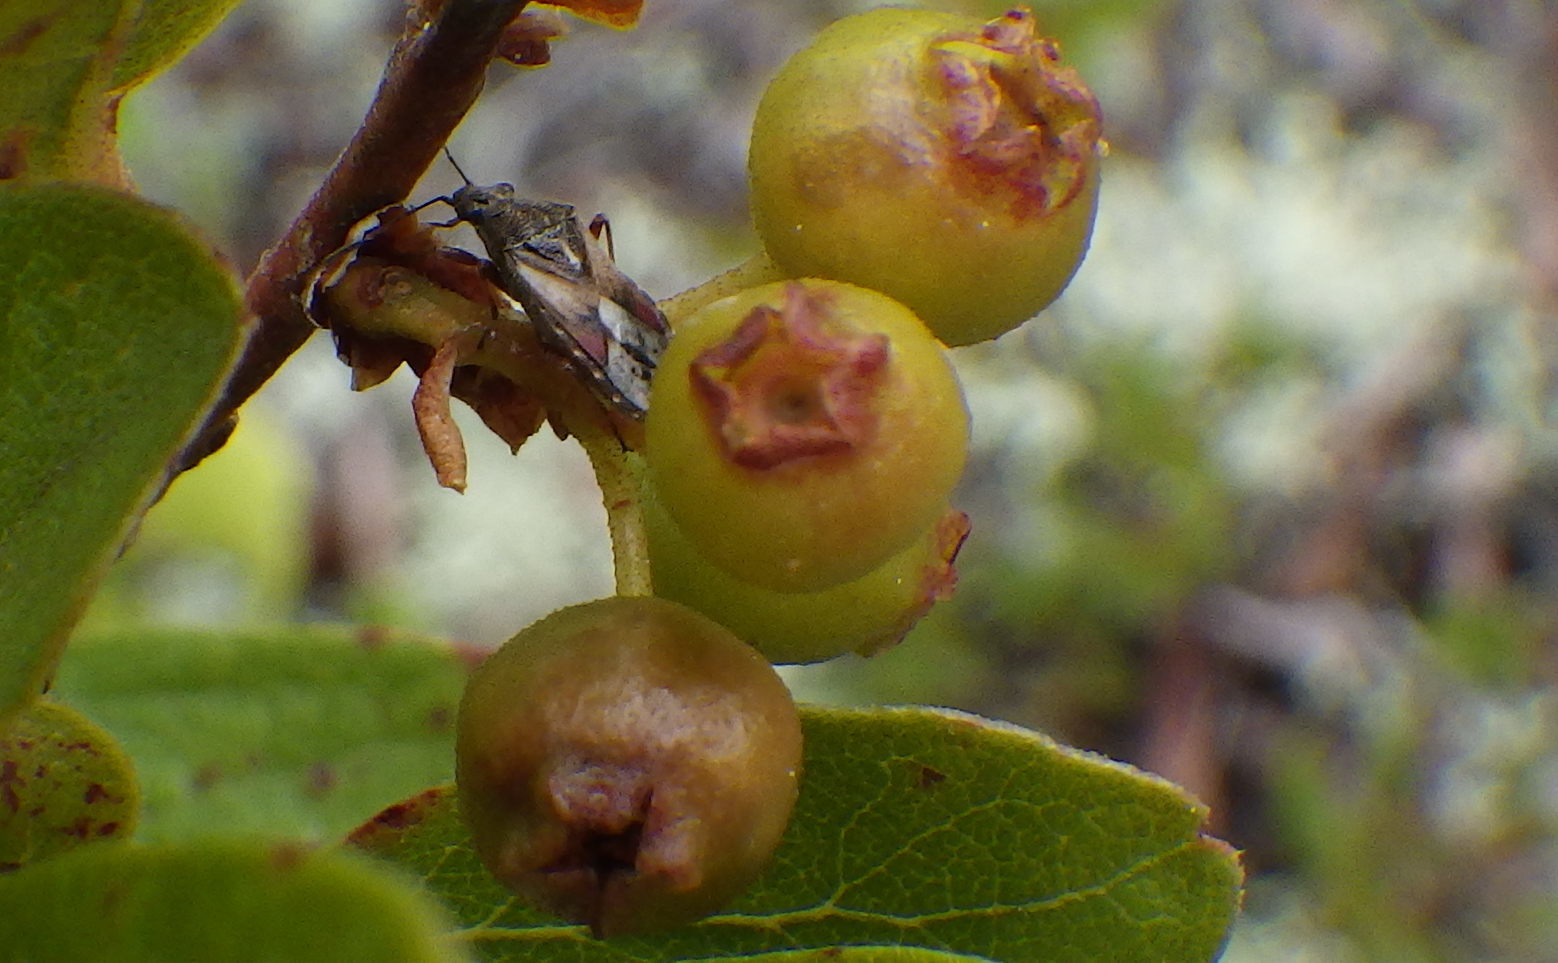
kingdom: Animalia
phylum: Arthropoda
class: Insecta
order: Hemiptera
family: Lygaeidae
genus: Neortholomus
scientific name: Neortholomus scolopax
